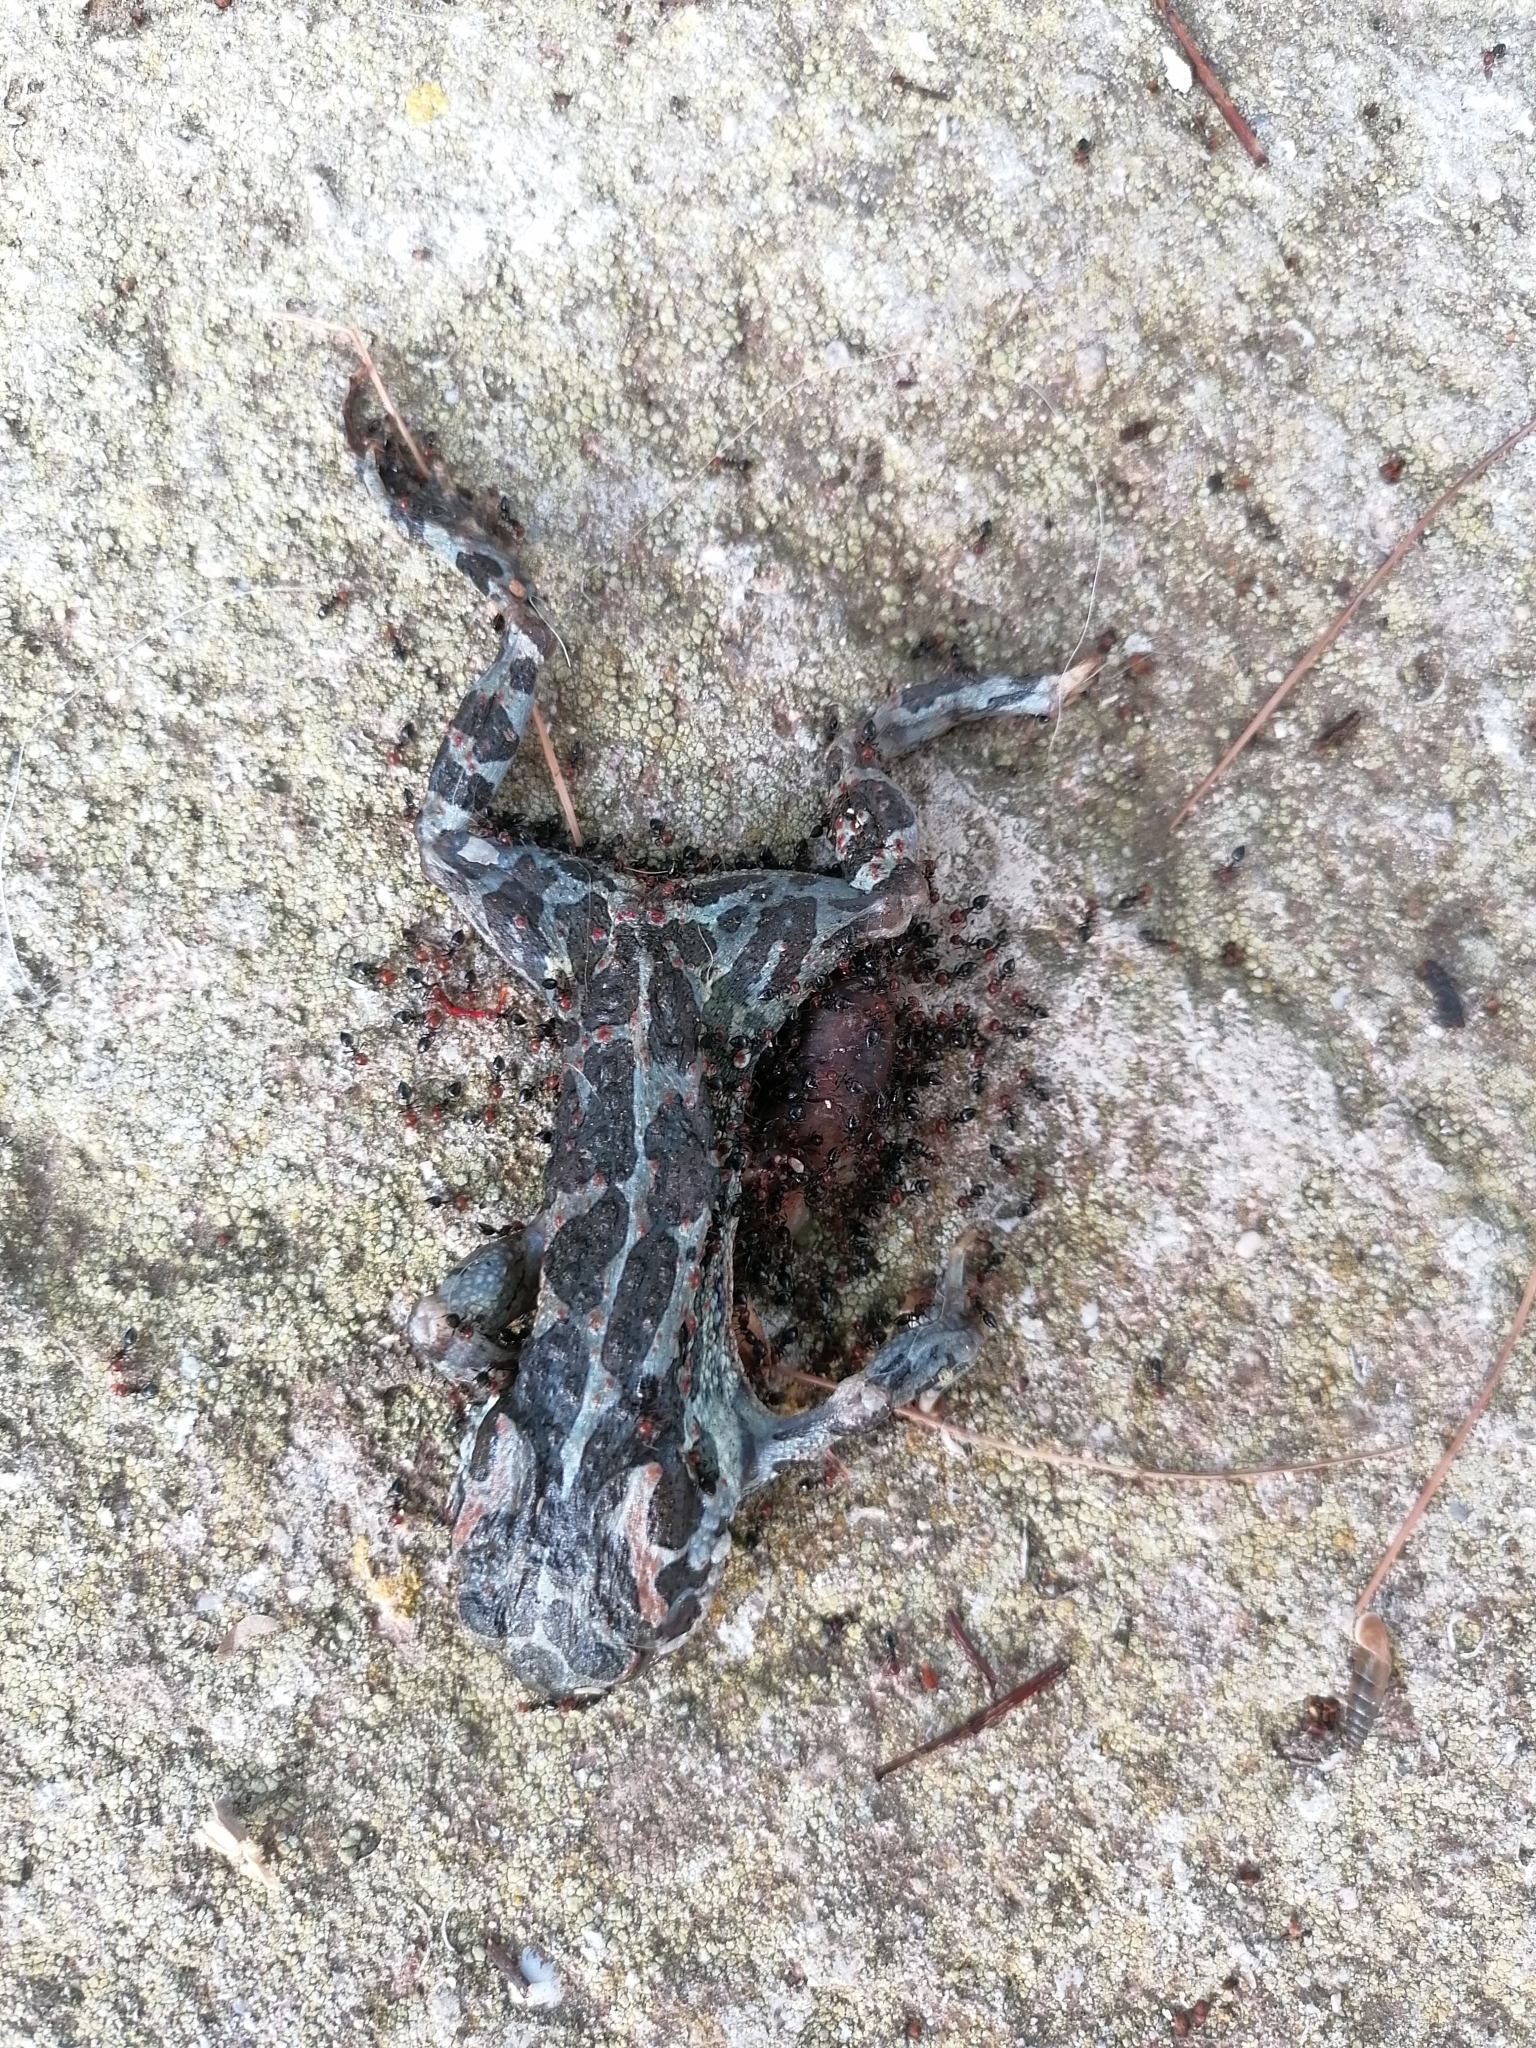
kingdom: Animalia
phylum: Chordata
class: Amphibia
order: Anura
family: Bufonidae
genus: Bufotes
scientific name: Bufotes viridis
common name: European green toad
